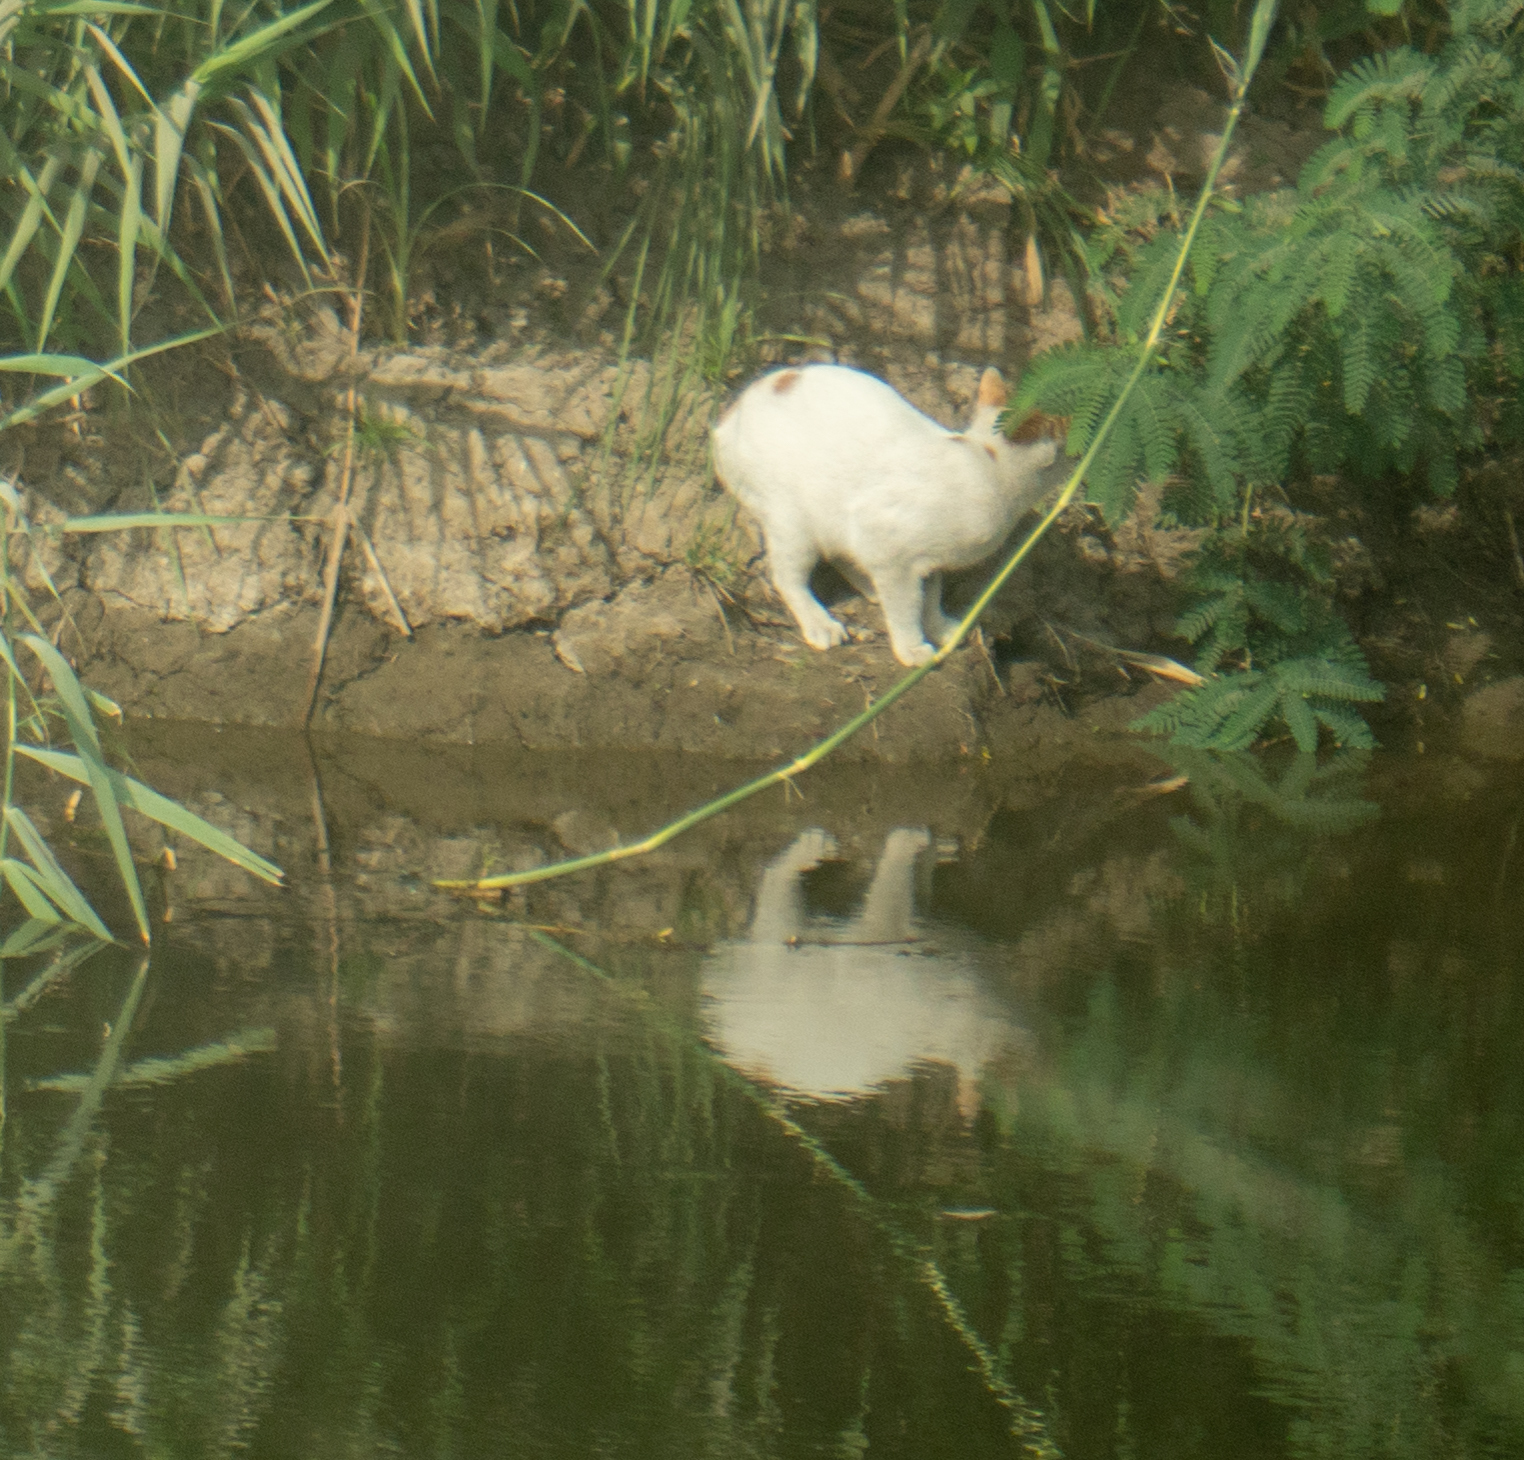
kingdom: Animalia
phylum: Chordata
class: Mammalia
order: Carnivora
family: Felidae
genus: Felis
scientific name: Felis catus
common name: Domestic cat
